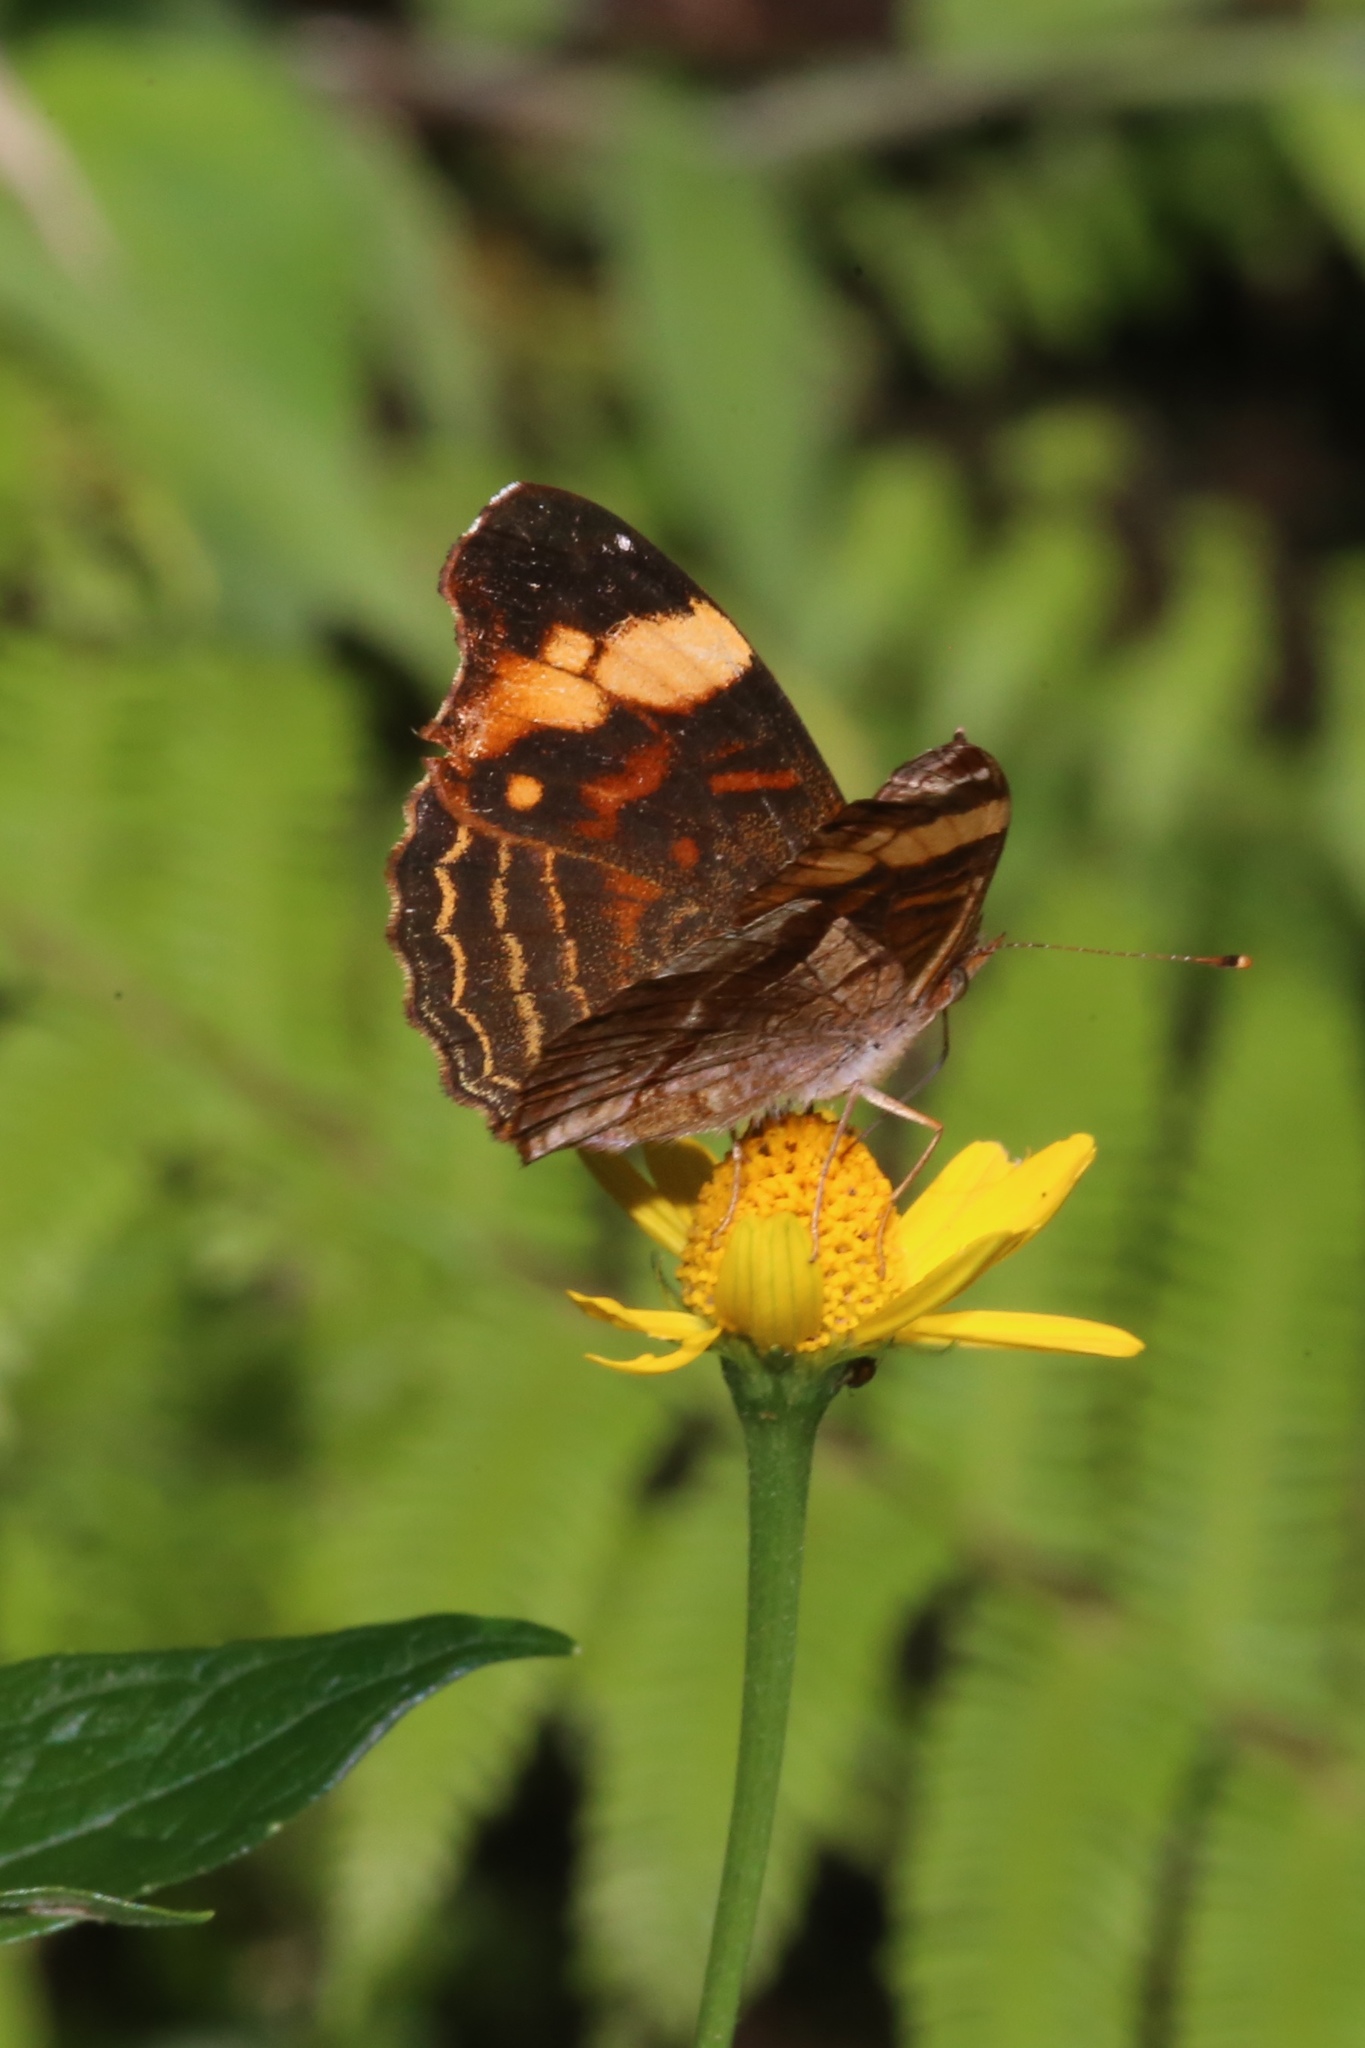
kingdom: Animalia
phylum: Arthropoda
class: Insecta
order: Lepidoptera
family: Nymphalidae
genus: Anthanassa
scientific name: Anthanassa crithona
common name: Orange-banded crescent
